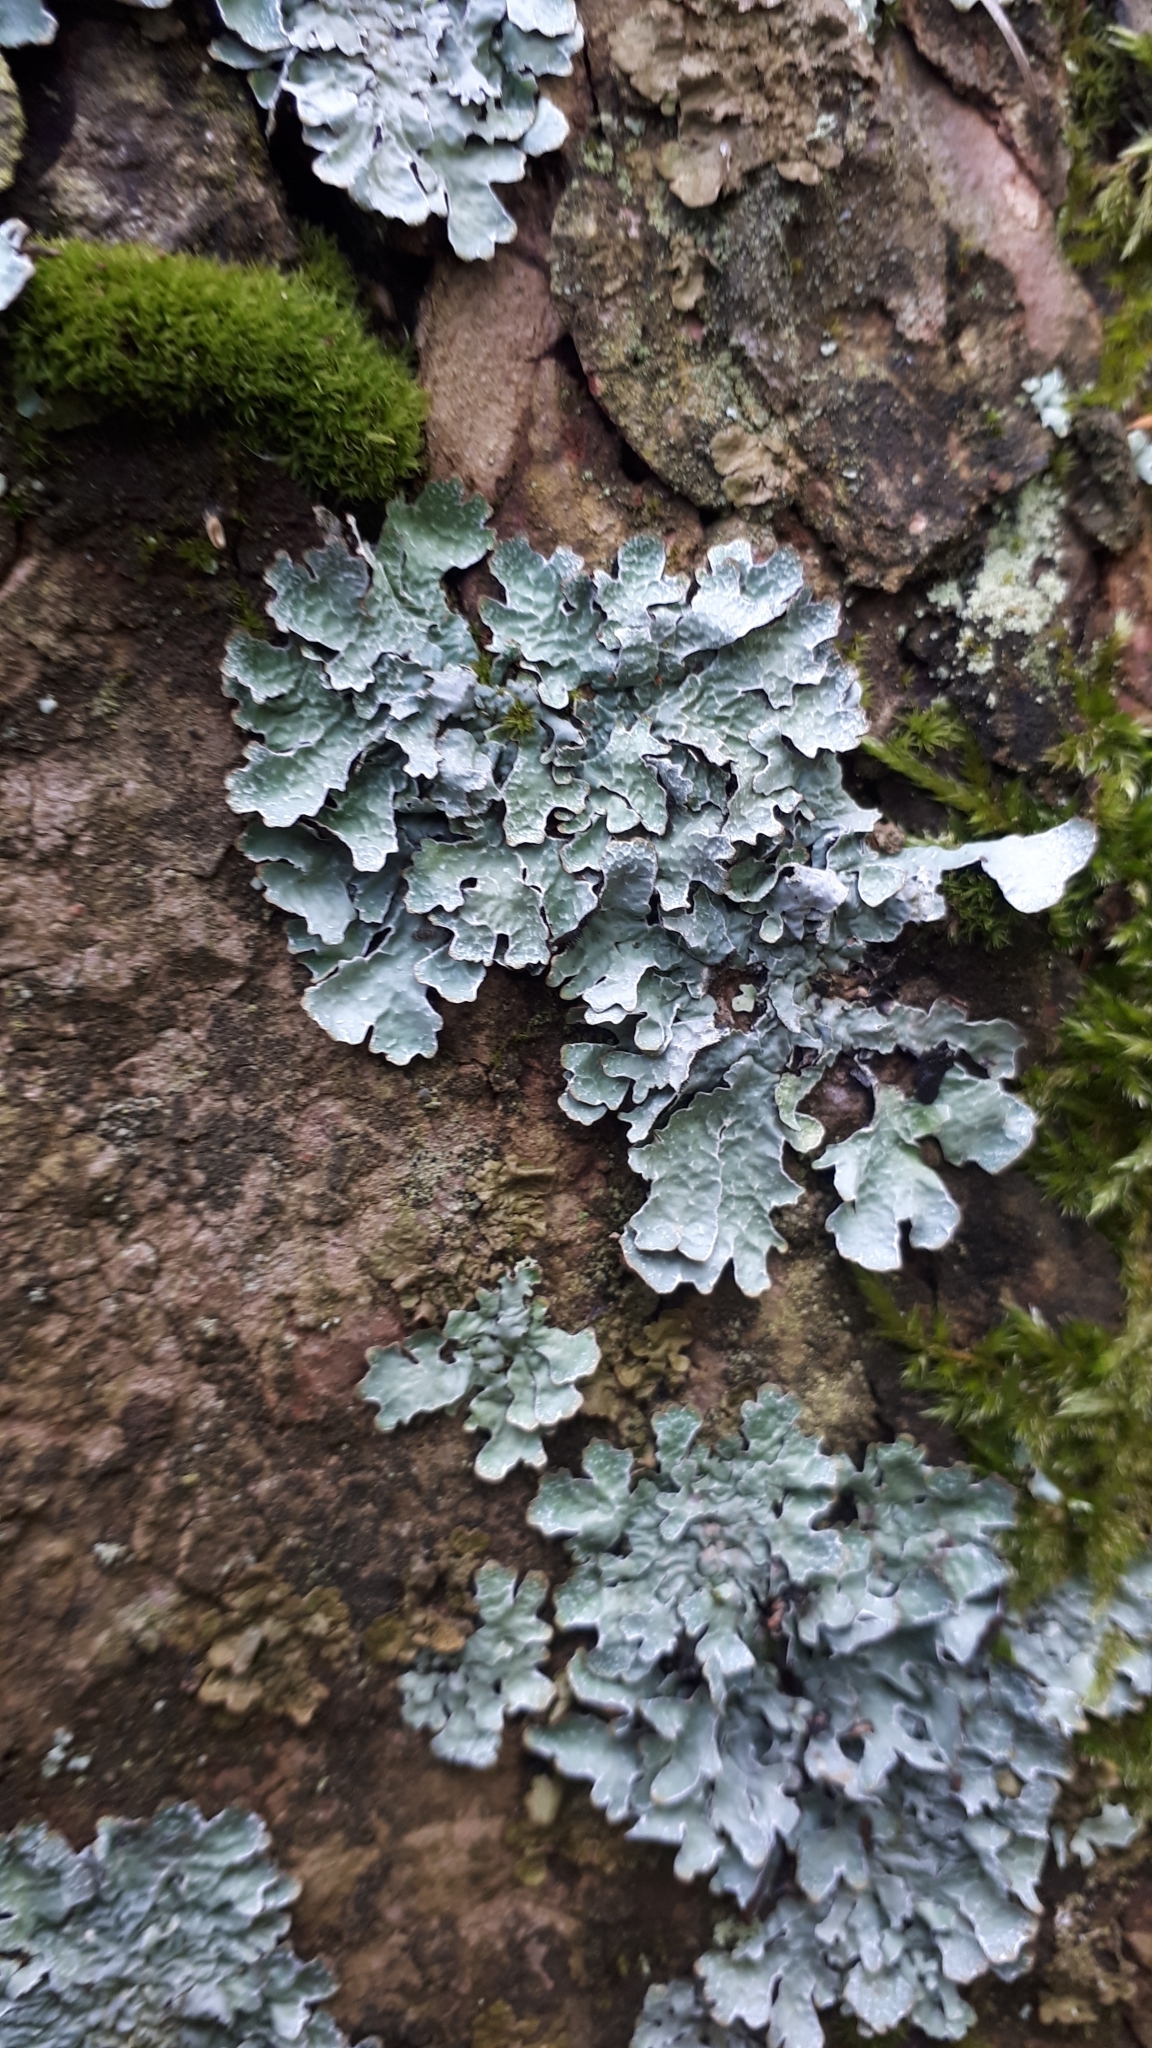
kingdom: Fungi
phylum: Ascomycota
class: Lecanoromycetes
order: Lecanorales
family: Parmeliaceae
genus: Parmelia
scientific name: Parmelia sulcata
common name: Netted shield lichen
